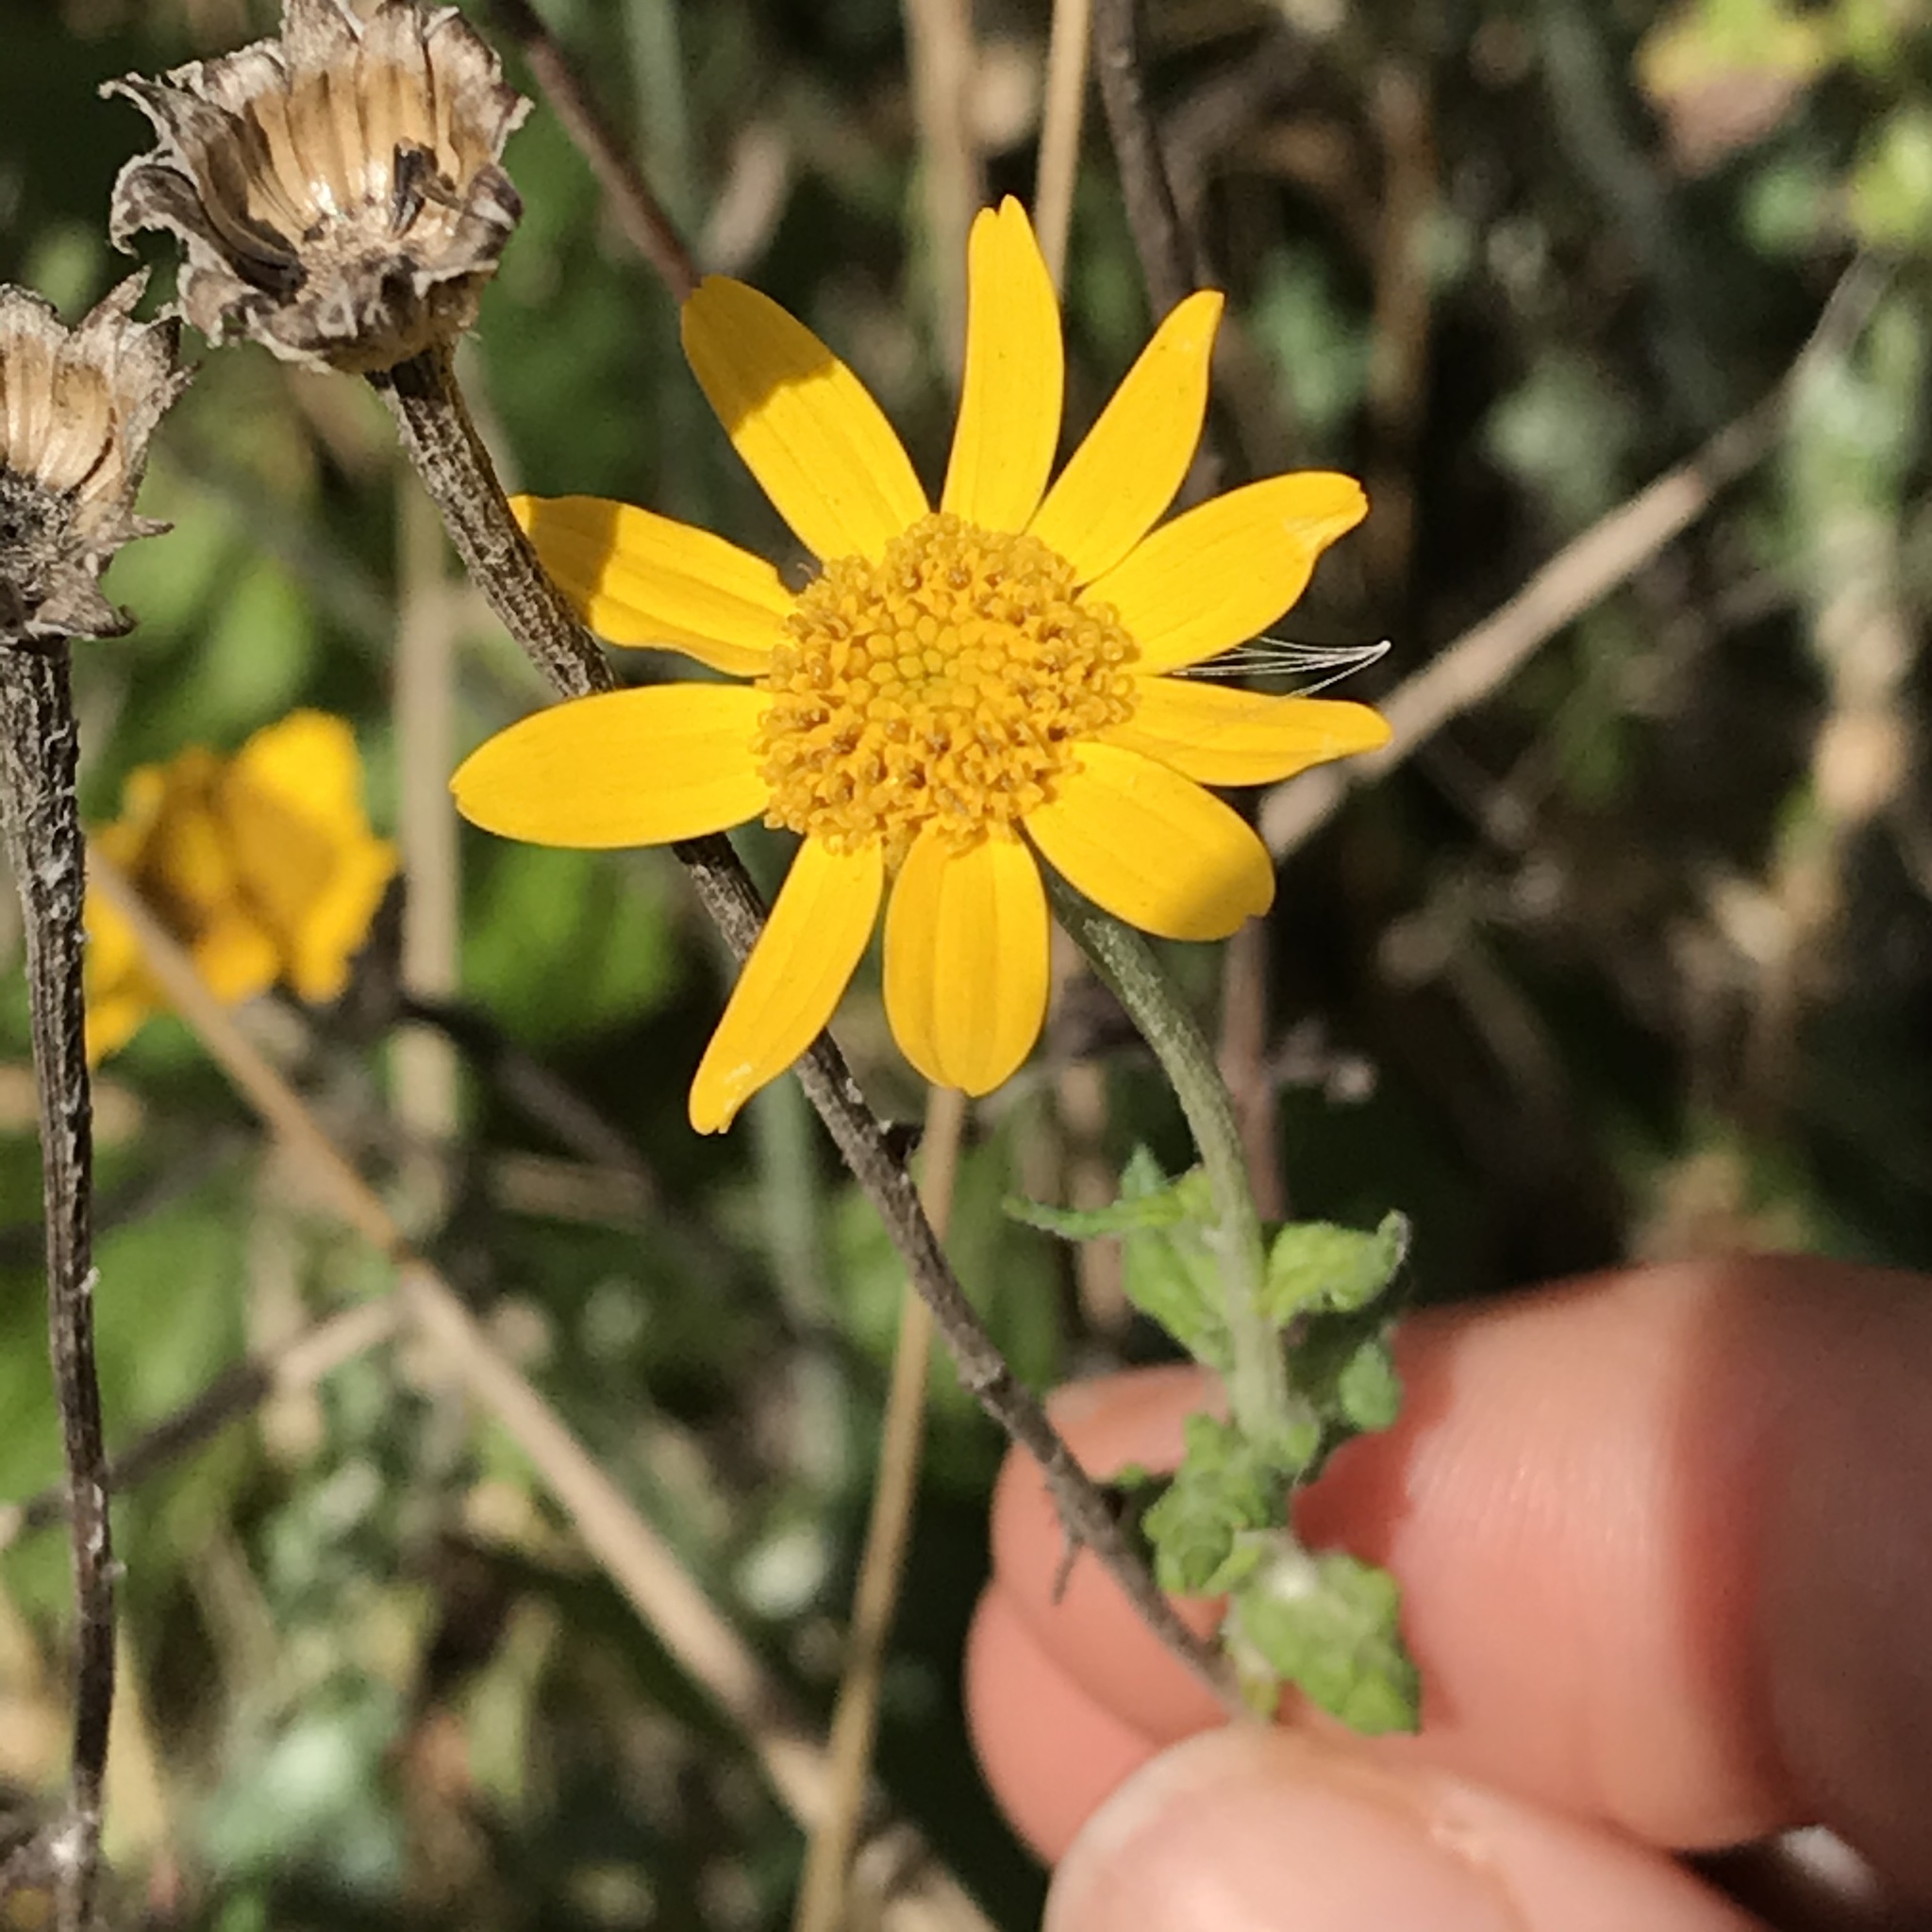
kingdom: Plantae
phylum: Tracheophyta
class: Magnoliopsida
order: Asterales
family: Asteraceae
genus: Eriophyllum
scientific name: Eriophyllum lanatum
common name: Common woolly-sunflower
